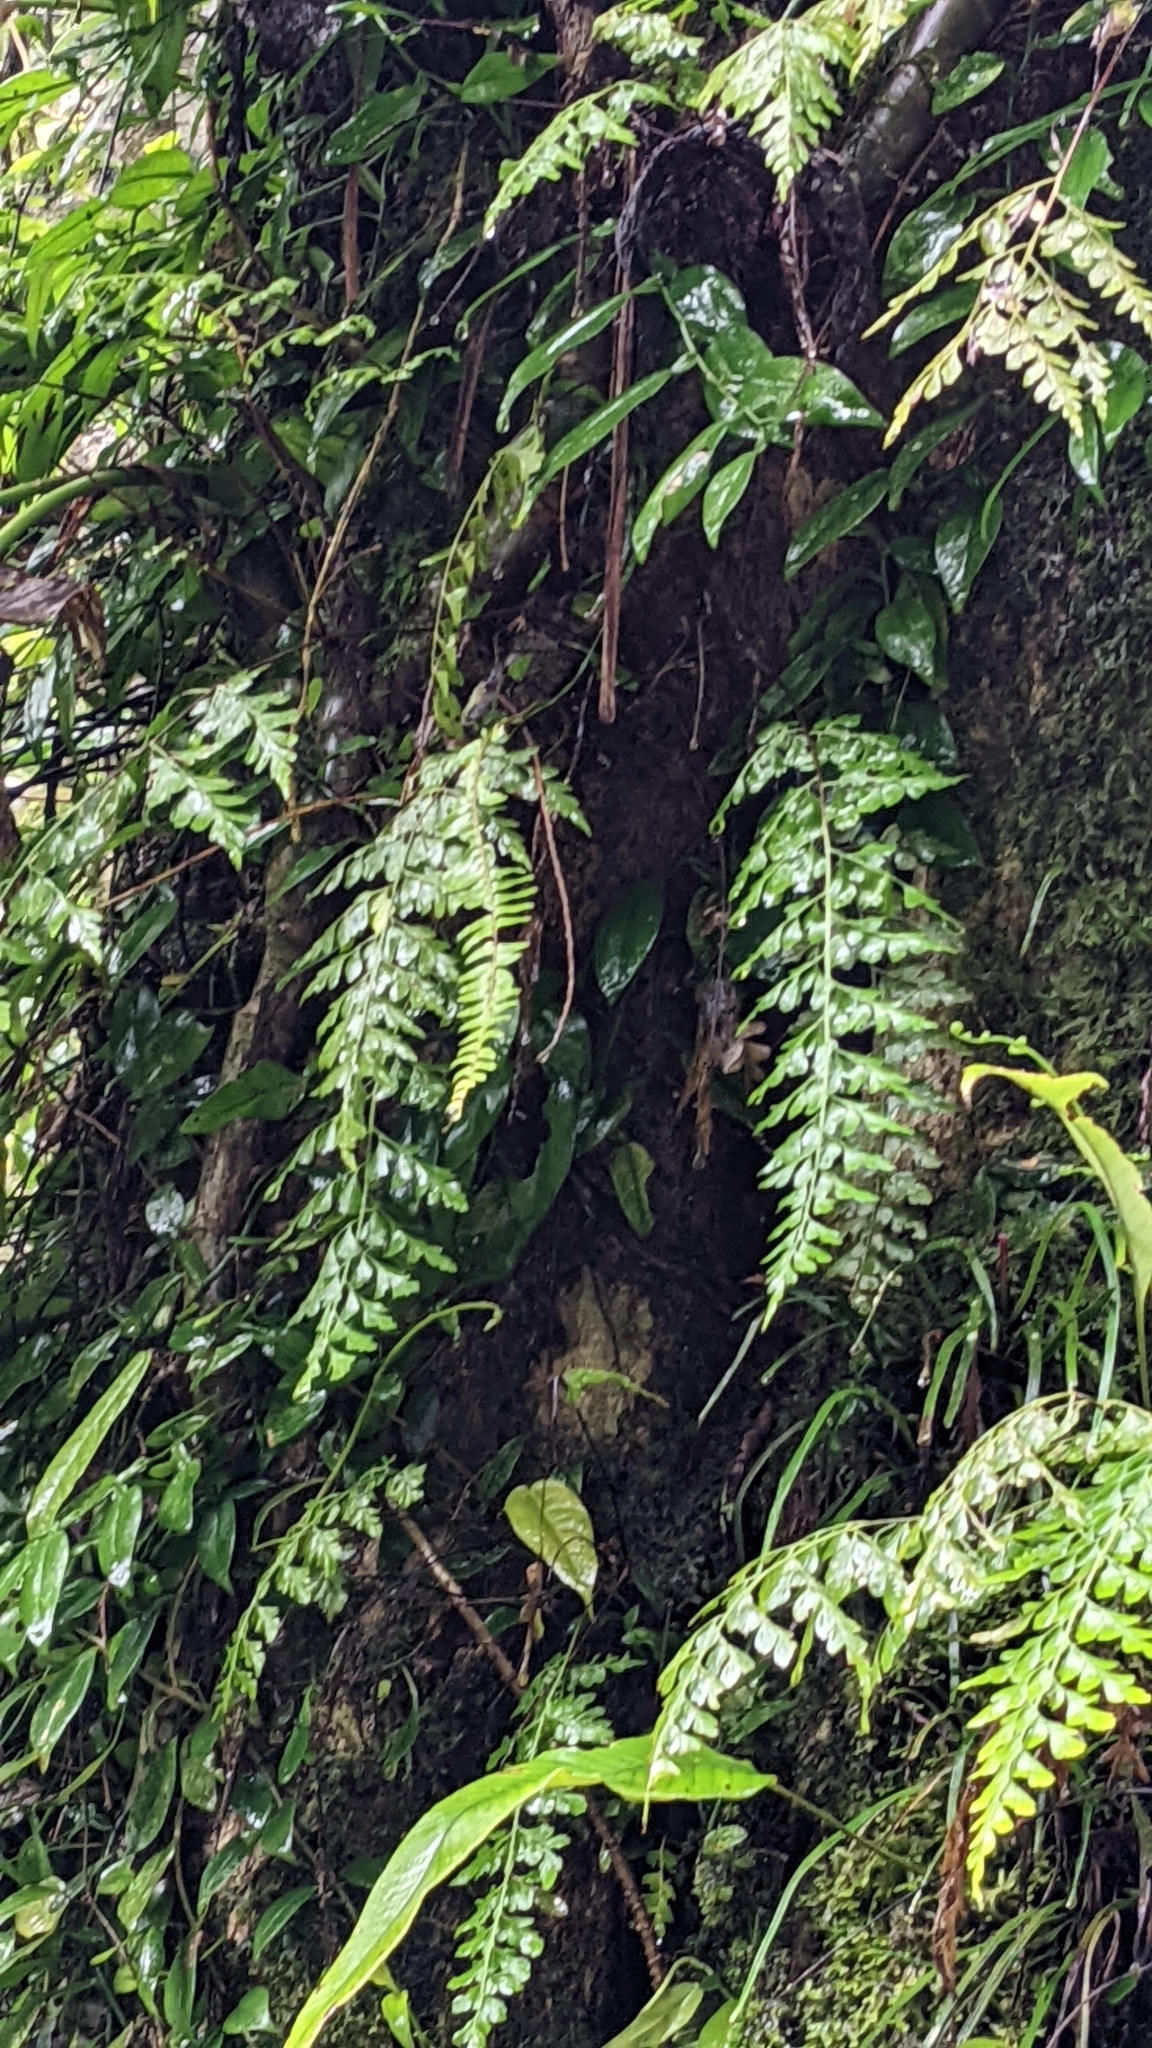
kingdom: Plantae
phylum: Tracheophyta
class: Polypodiopsida
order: Polypodiales
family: Aspleniaceae
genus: Asplenium
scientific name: Asplenium pseudolaserpitiifolium
